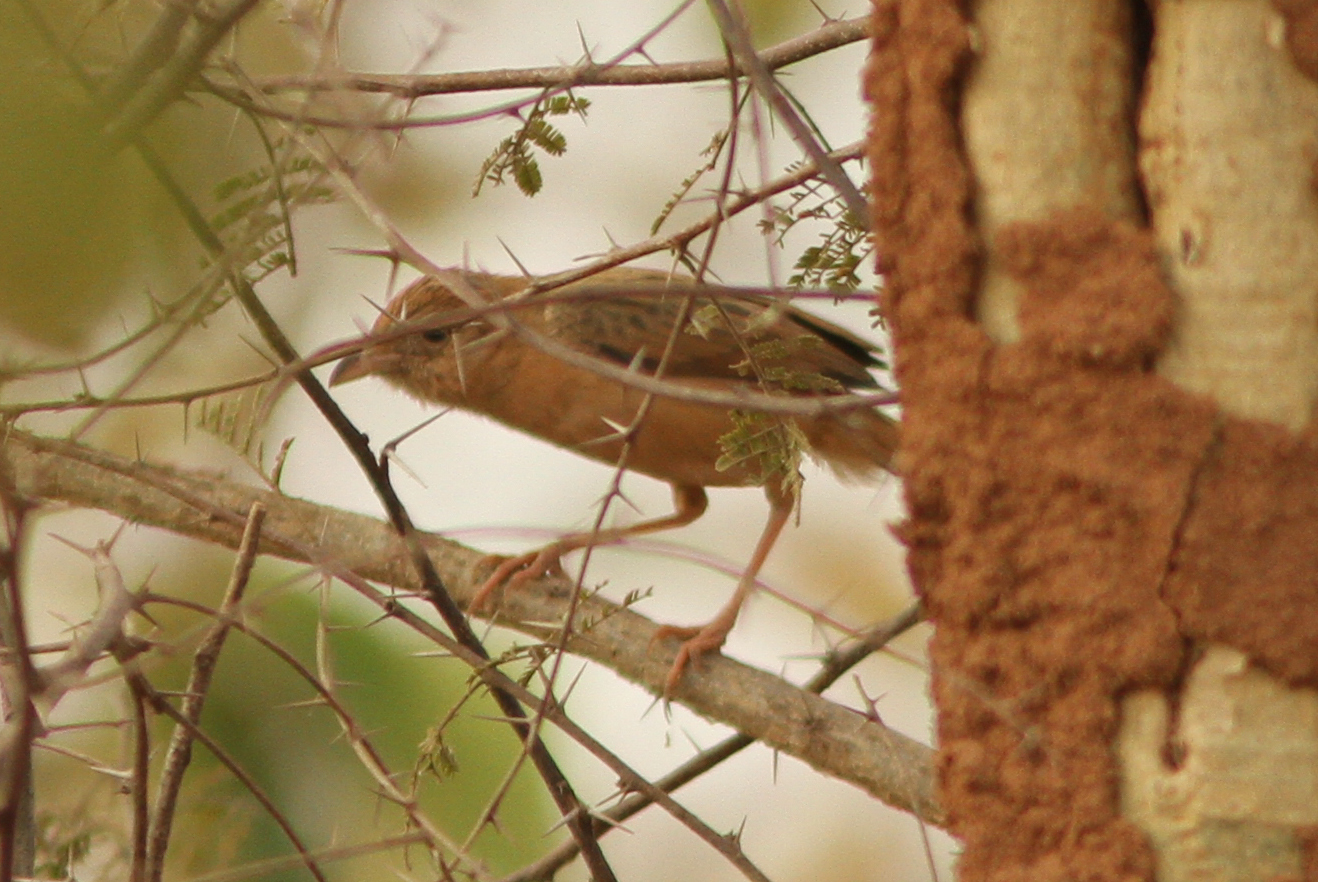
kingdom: Animalia
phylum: Chordata
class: Aves
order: Passeriformes
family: Cisticolidae
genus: Cisticola
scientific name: Cisticola natalensis
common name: Croaking cisticola
